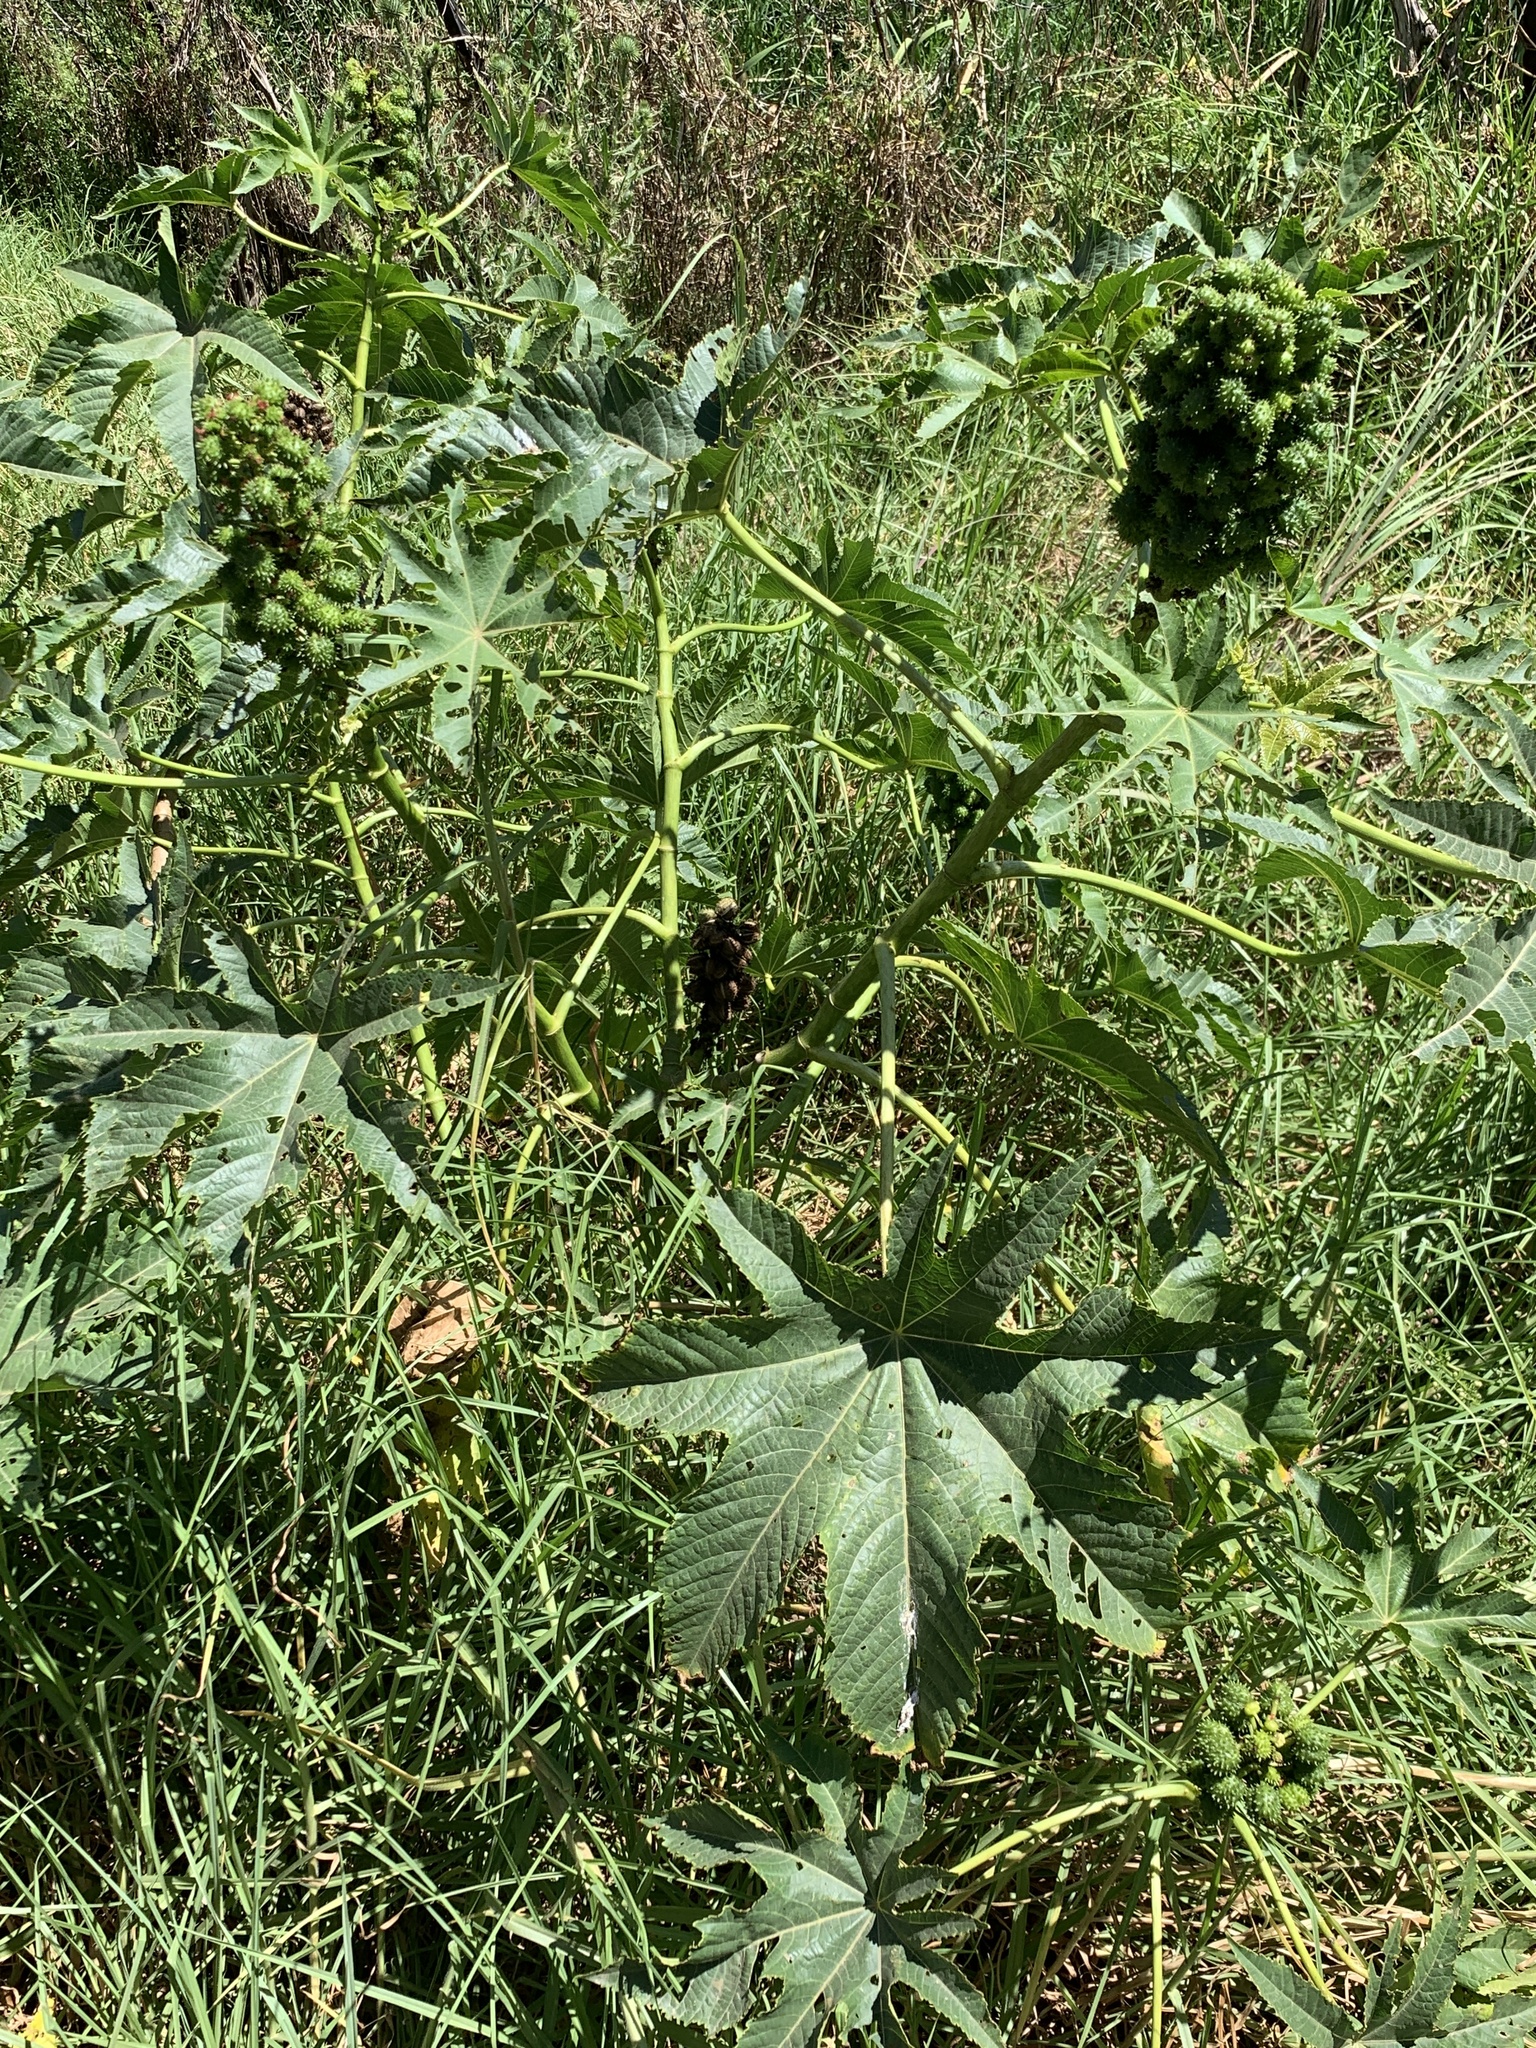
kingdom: Plantae
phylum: Tracheophyta
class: Magnoliopsida
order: Malpighiales
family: Euphorbiaceae
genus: Ricinus
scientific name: Ricinus communis
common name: Castor-oil-plant
